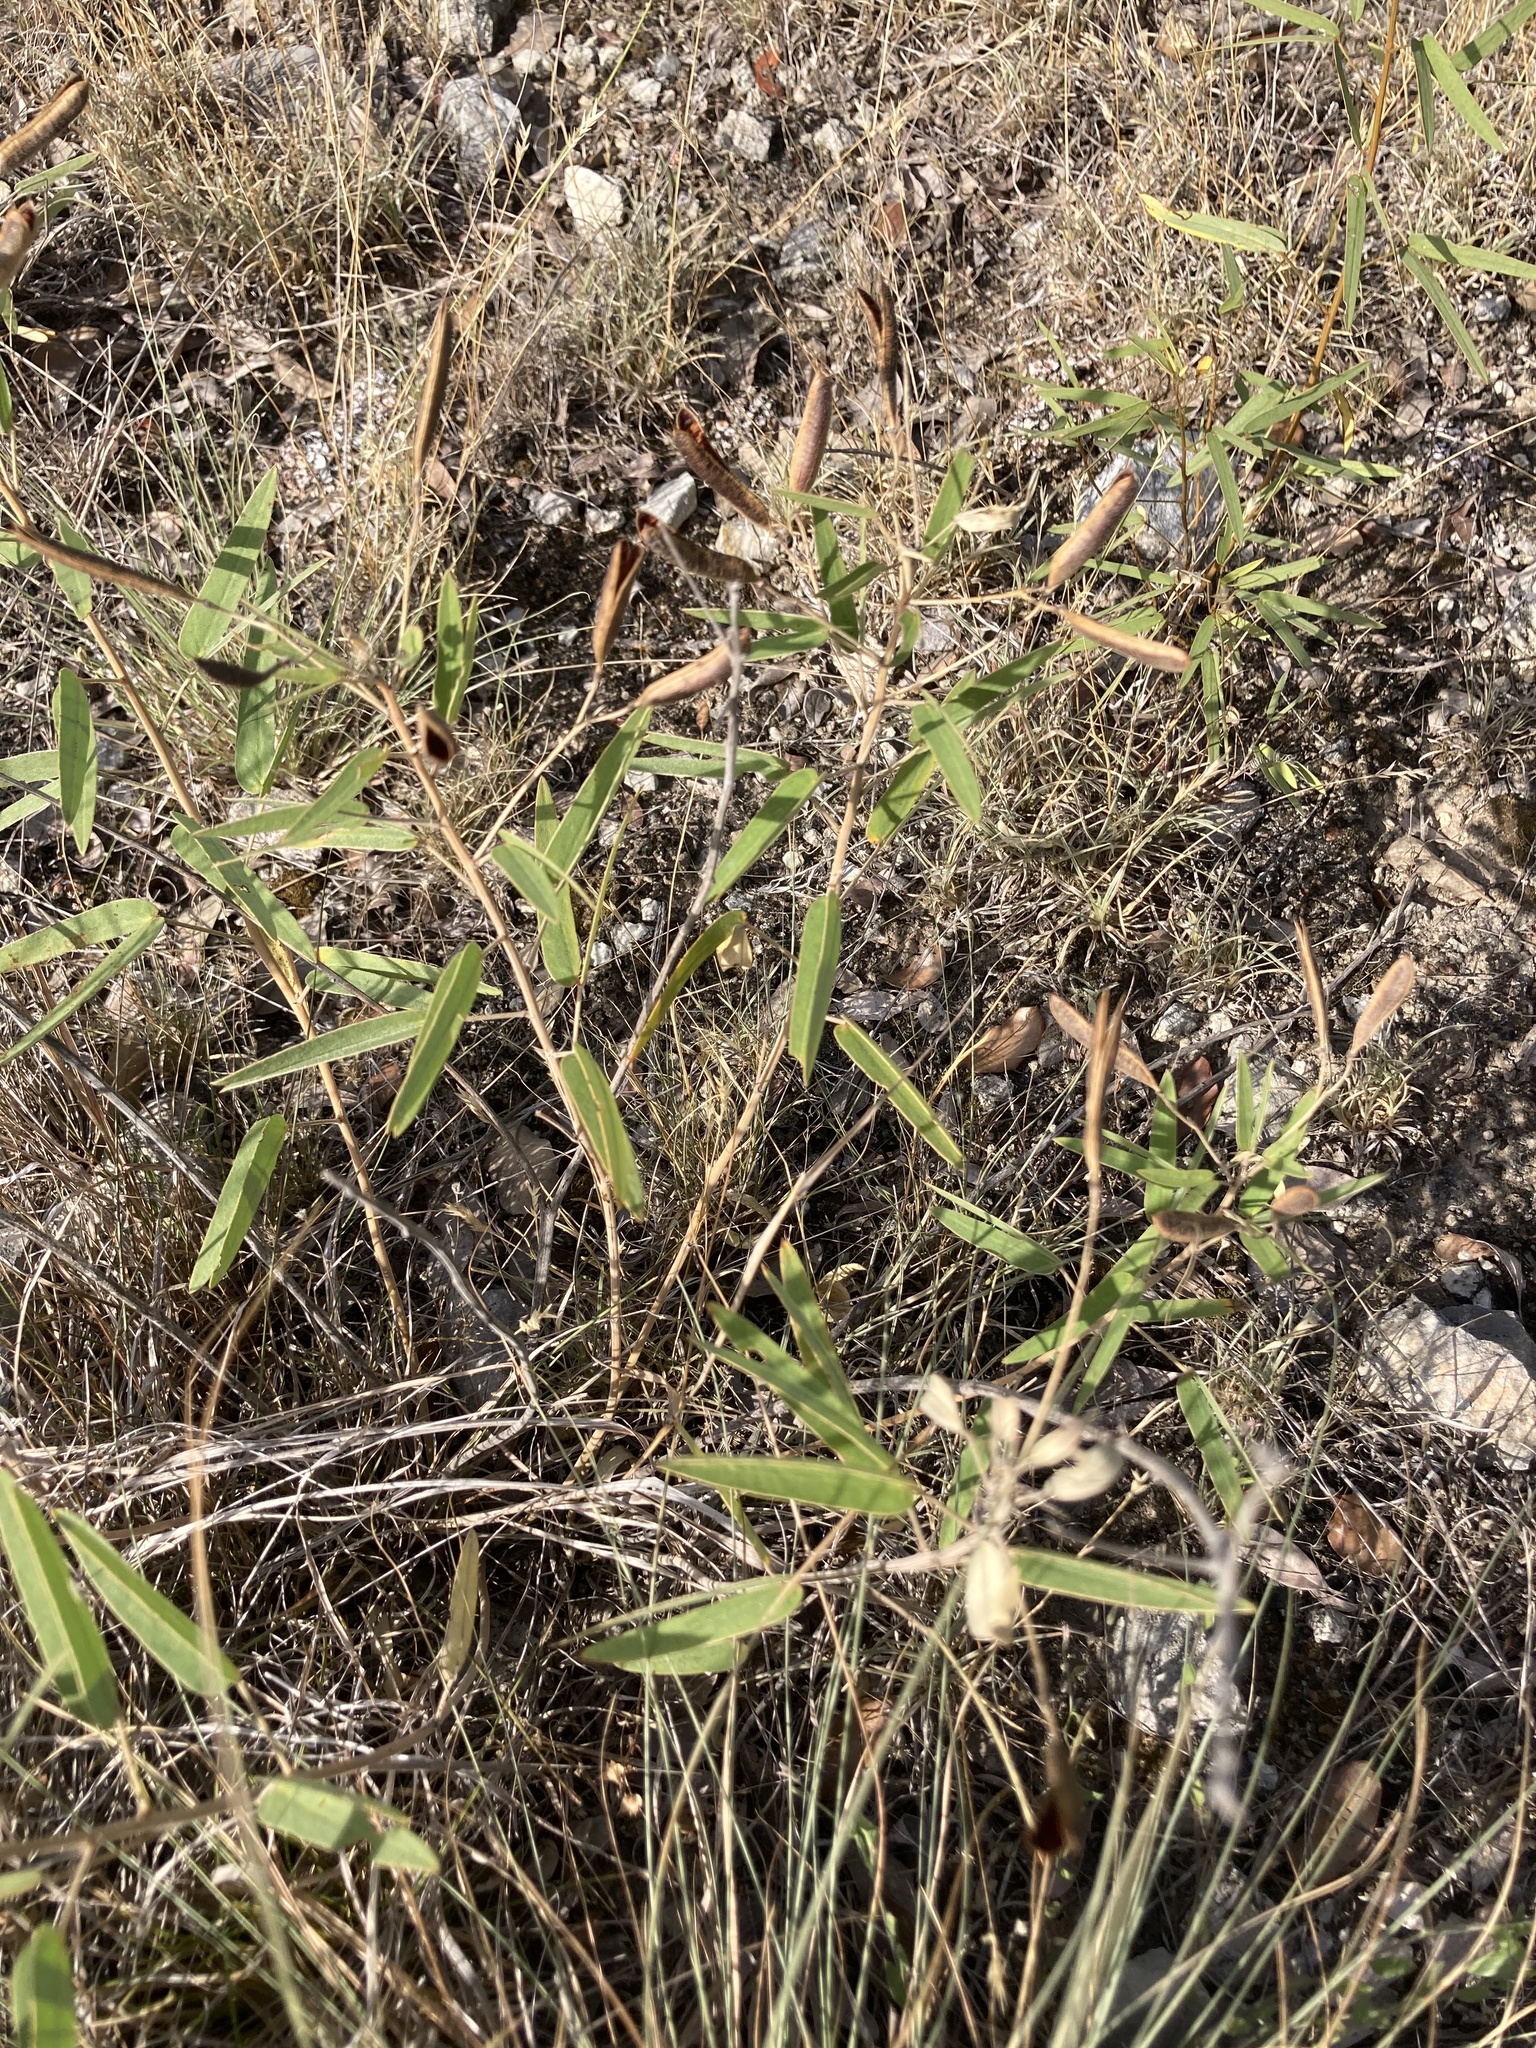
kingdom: Plantae
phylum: Tracheophyta
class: Magnoliopsida
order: Fabales
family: Fabaceae
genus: Senna
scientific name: Senna roemeriana
